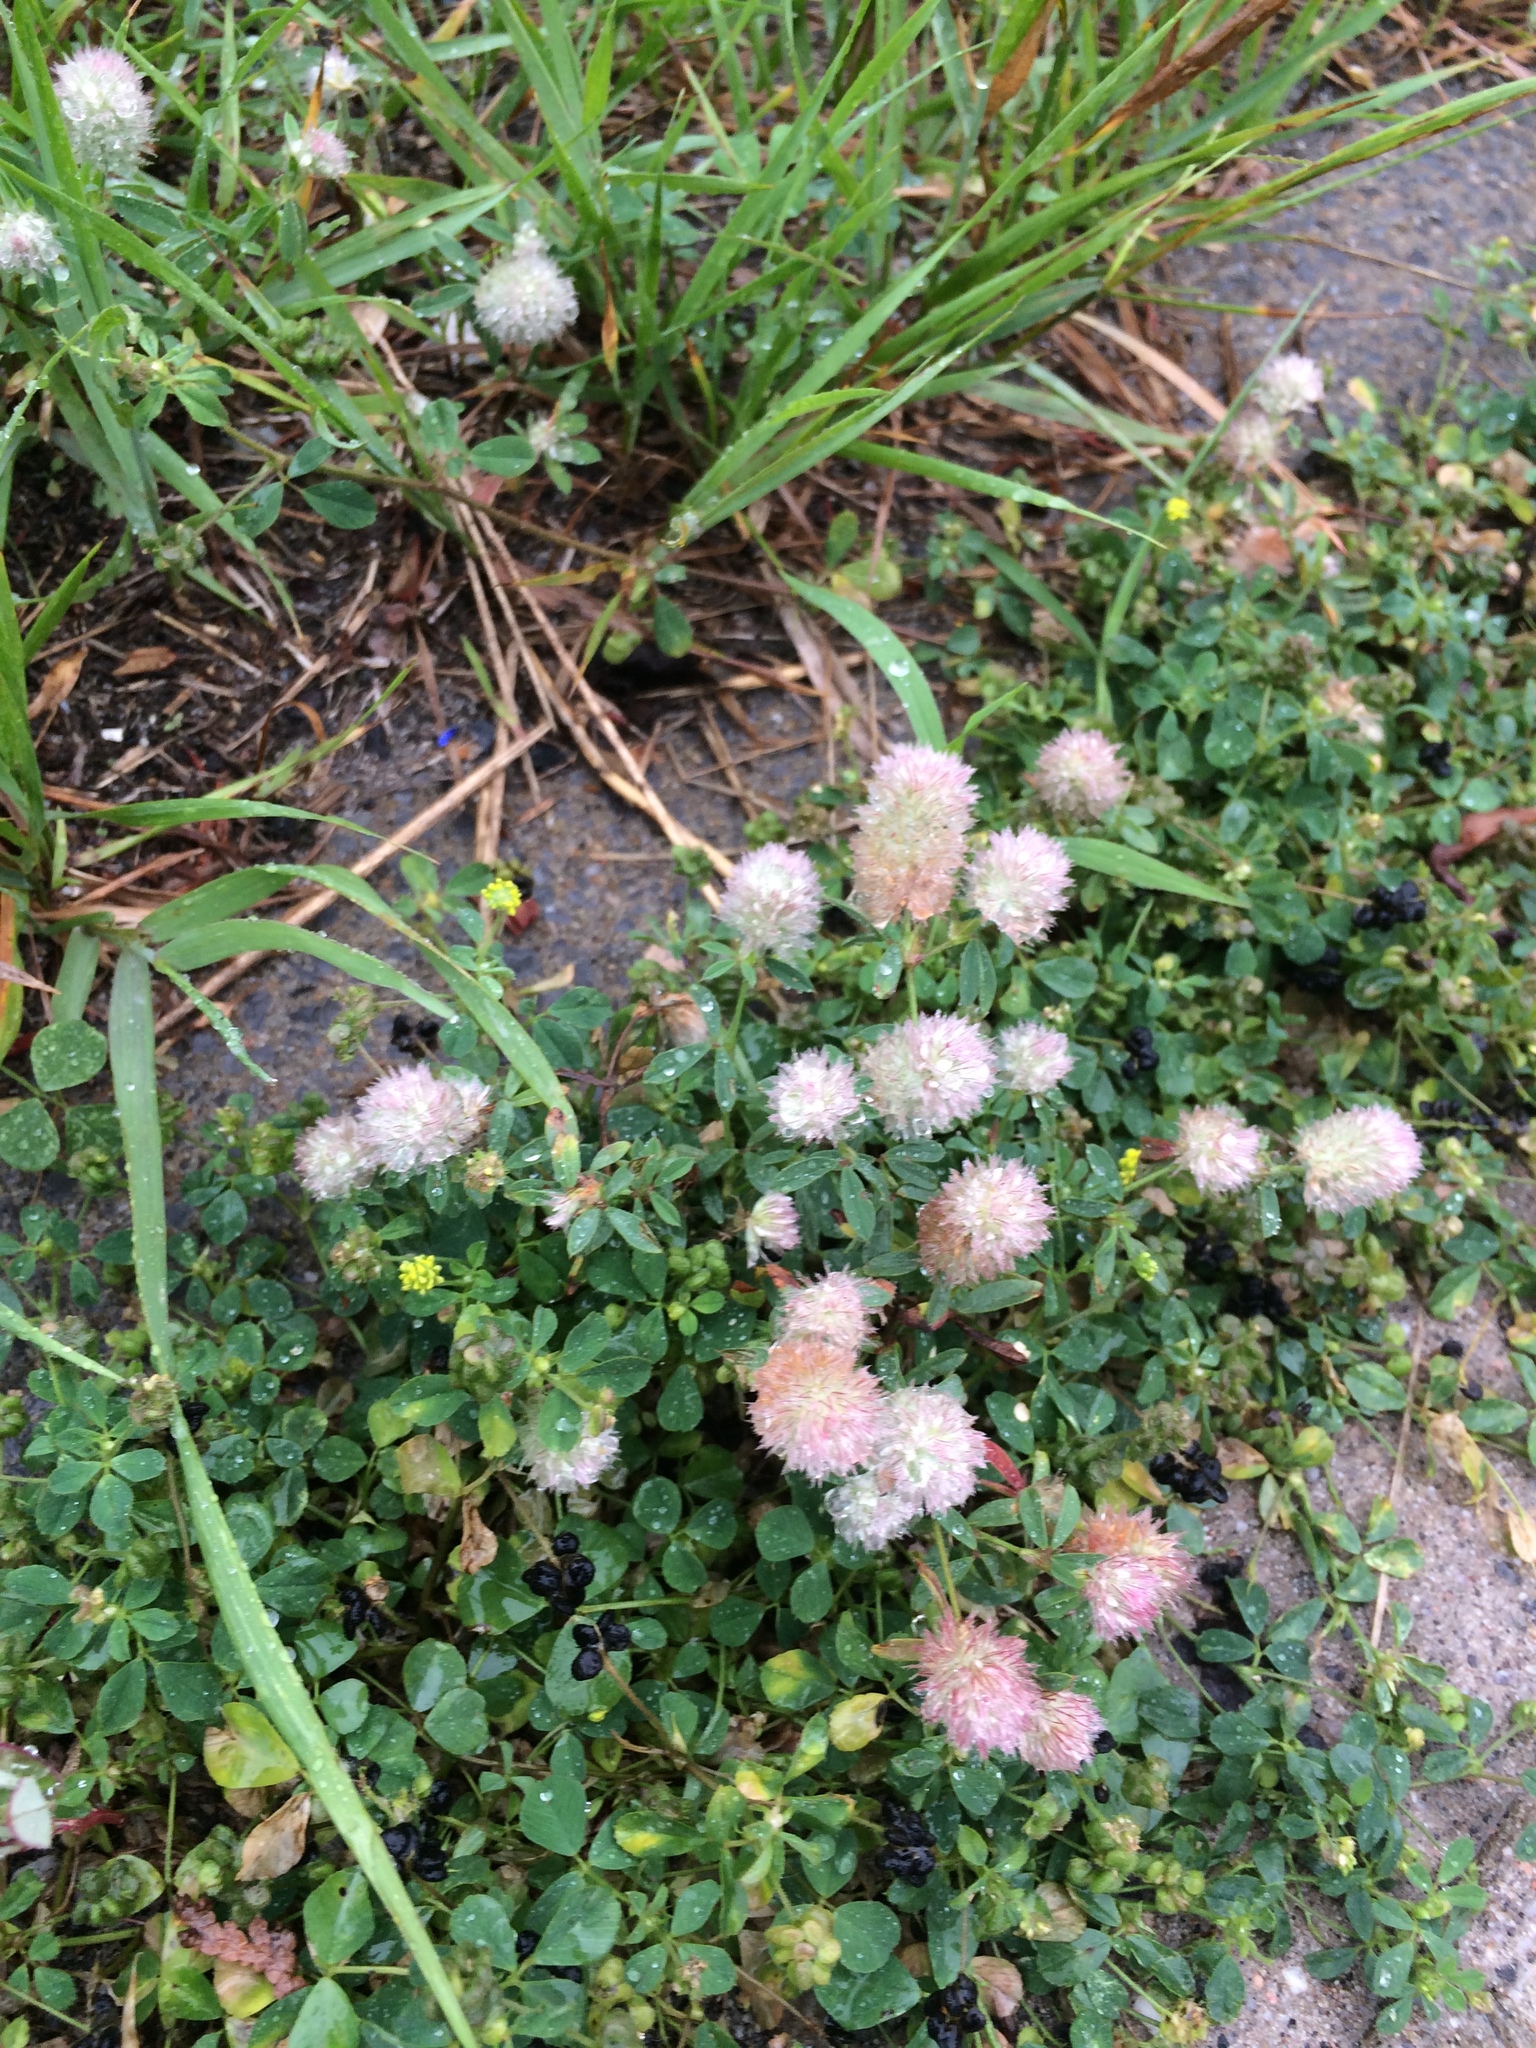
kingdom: Plantae
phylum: Tracheophyta
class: Magnoliopsida
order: Fabales
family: Fabaceae
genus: Trifolium
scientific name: Trifolium arvense
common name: Hare's-foot clover
